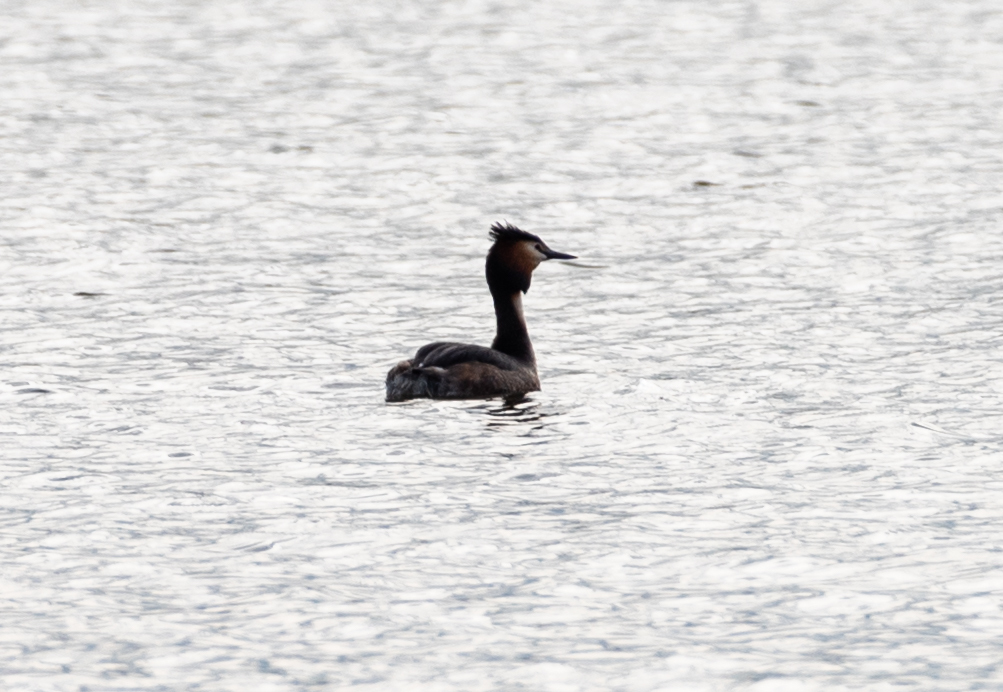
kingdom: Animalia
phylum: Chordata
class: Aves
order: Podicipediformes
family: Podicipedidae
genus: Podiceps
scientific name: Podiceps cristatus
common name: Great crested grebe
